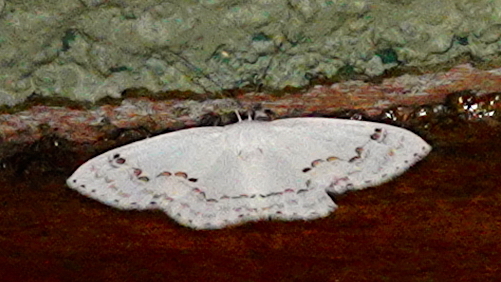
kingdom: Animalia
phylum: Arthropoda
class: Insecta
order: Lepidoptera
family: Drepanidae
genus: Teldenia
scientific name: Teldenia alba
